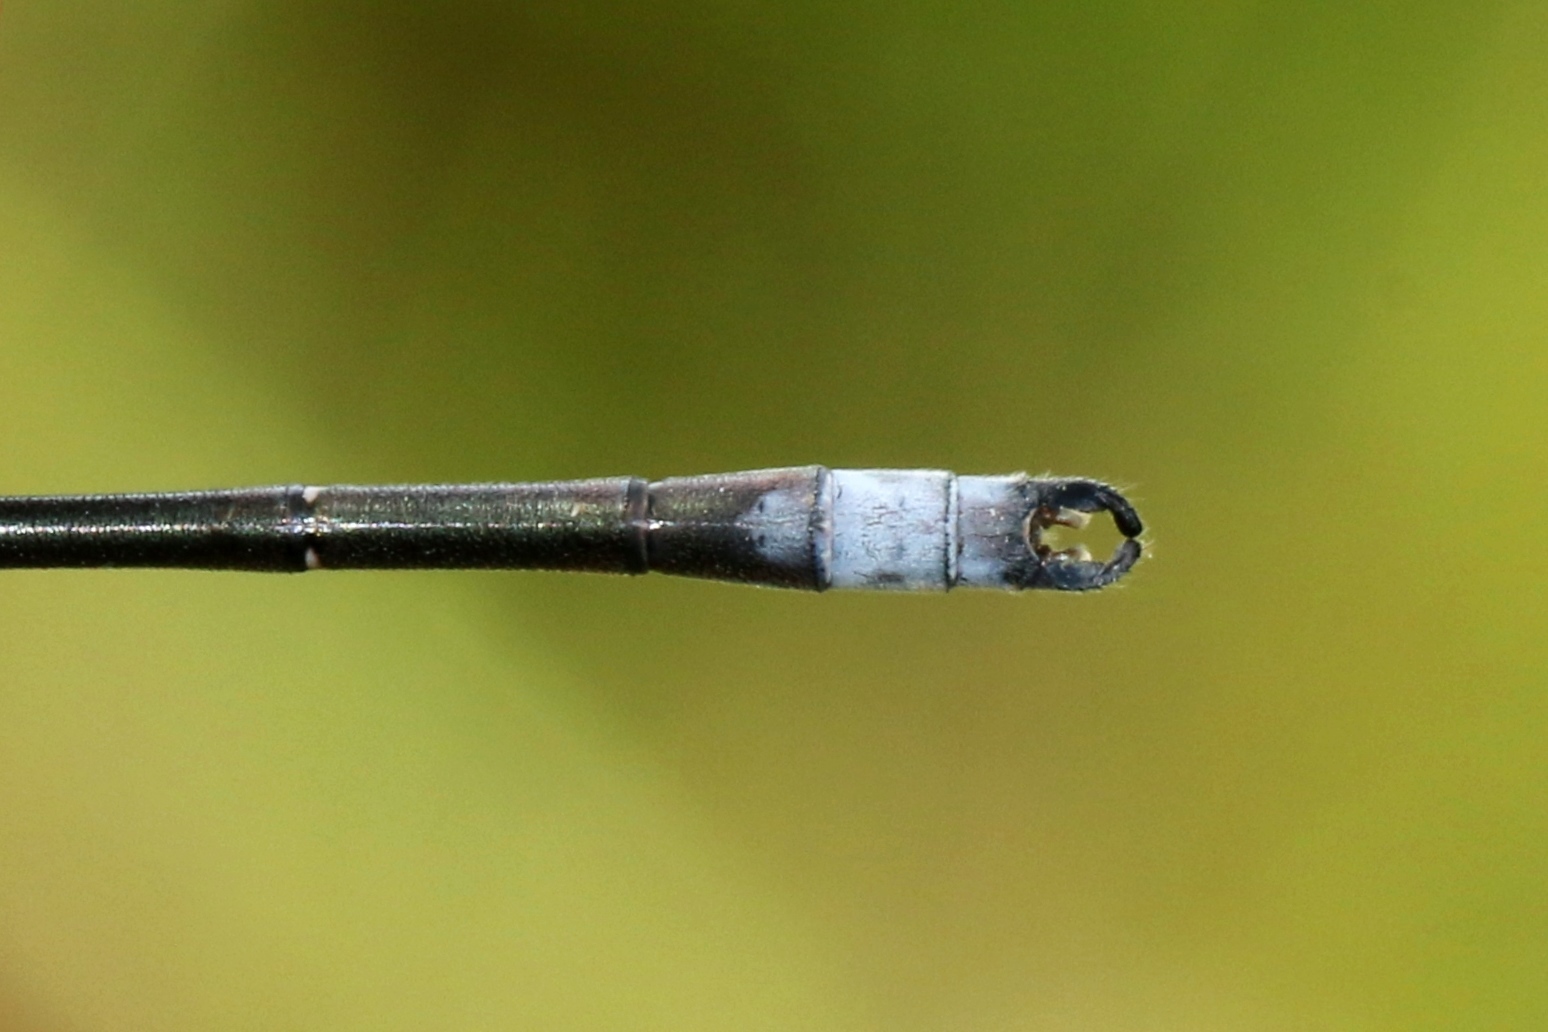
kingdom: Animalia
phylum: Arthropoda
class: Insecta
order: Odonata
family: Lestidae
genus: Lestes
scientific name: Lestes congener
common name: Spotted spreadwing
